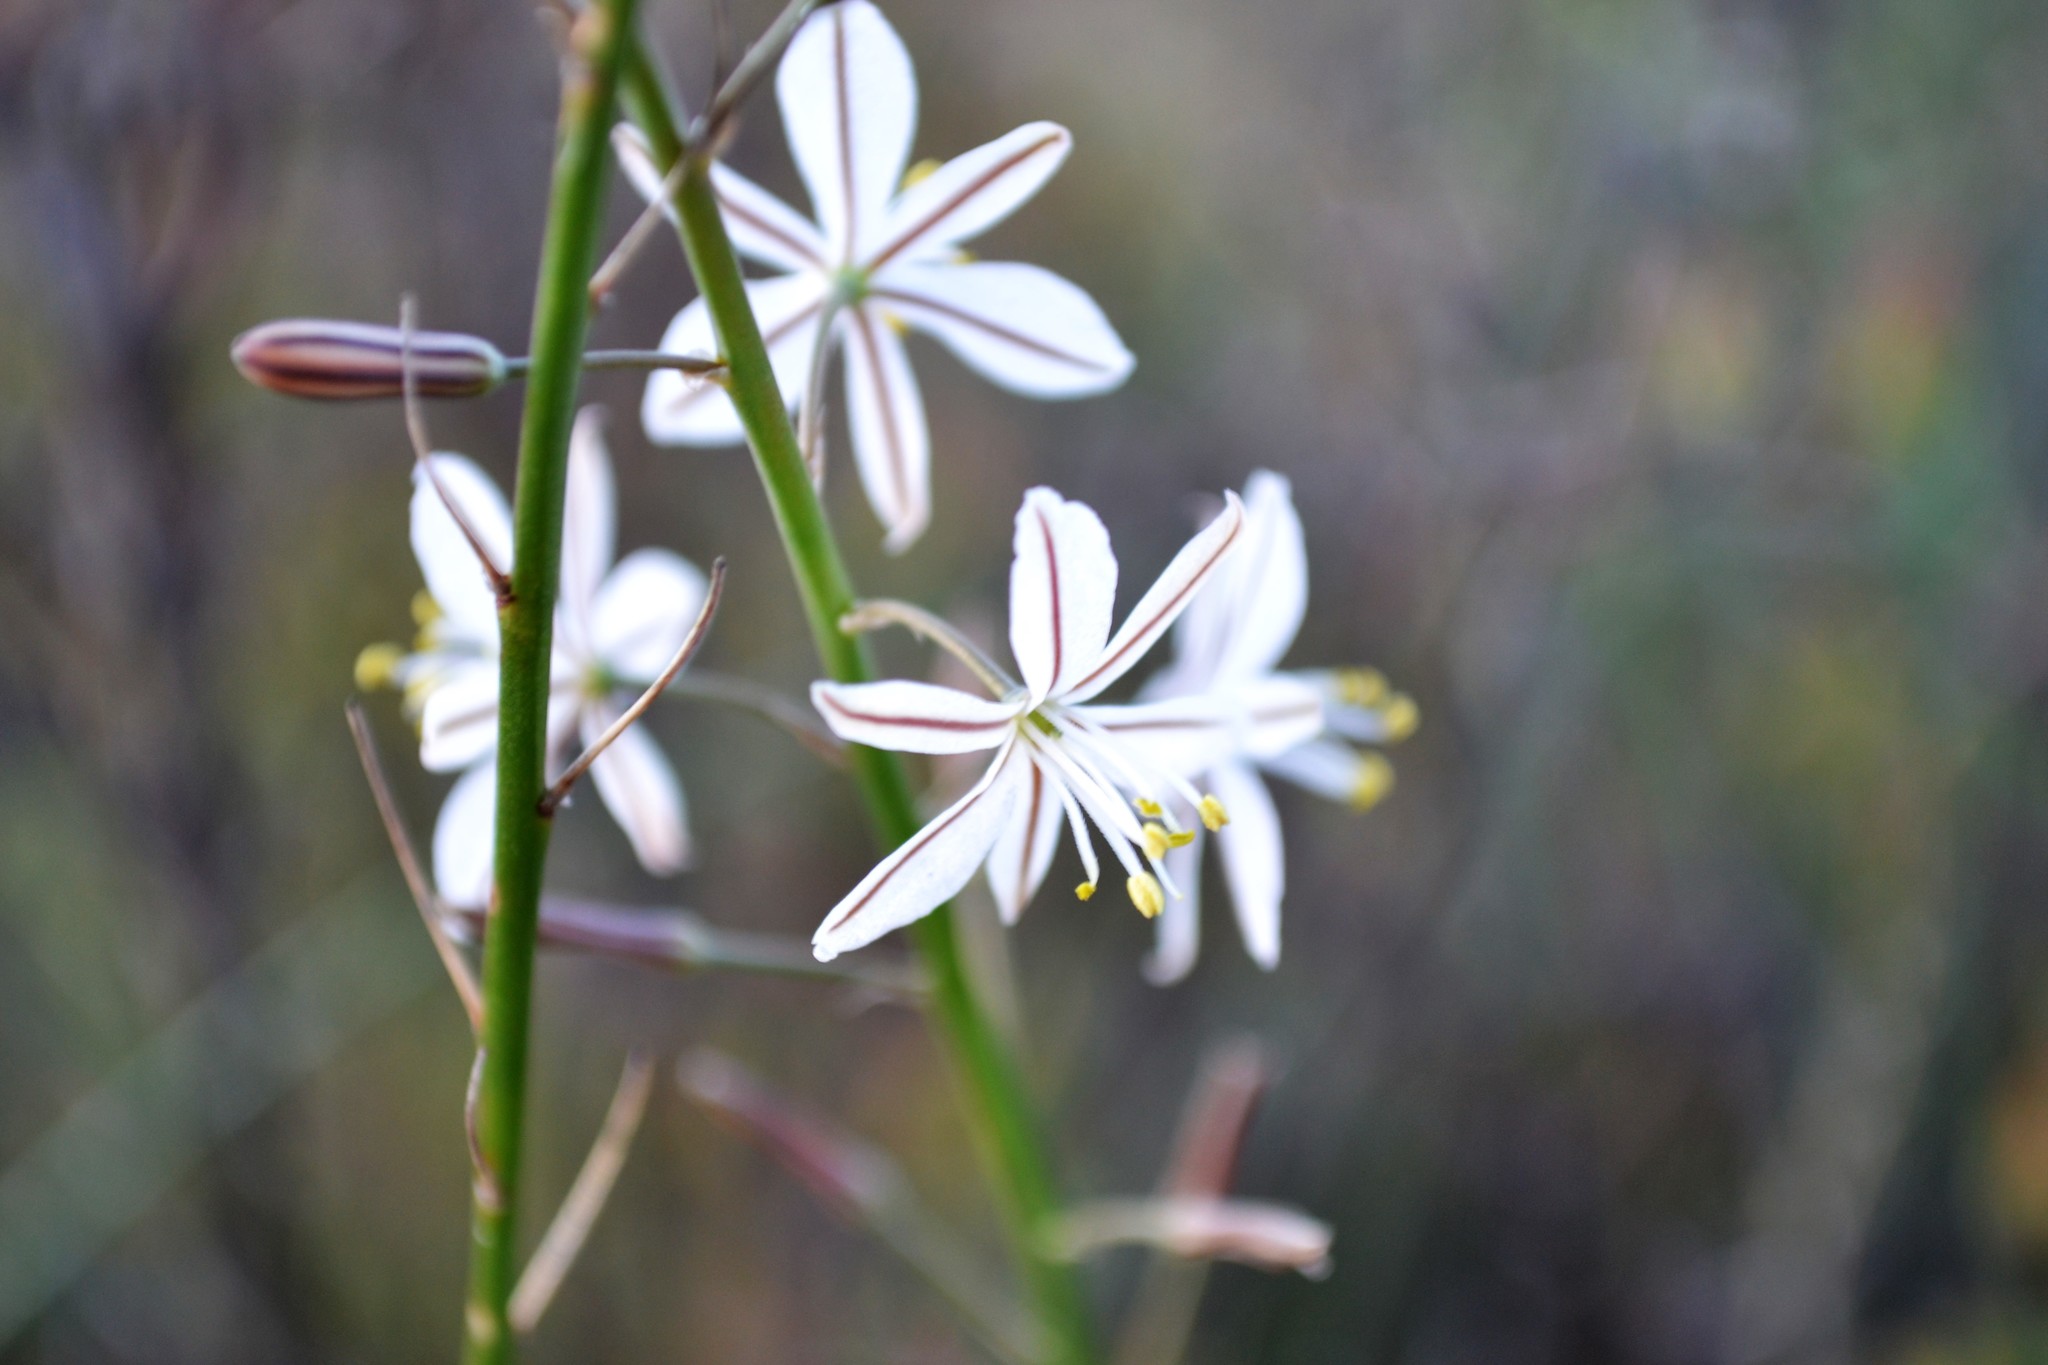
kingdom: Plantae
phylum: Tracheophyta
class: Liliopsida
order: Asparagales
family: Asphodelaceae
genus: Trachyandra
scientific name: Trachyandra saltii
